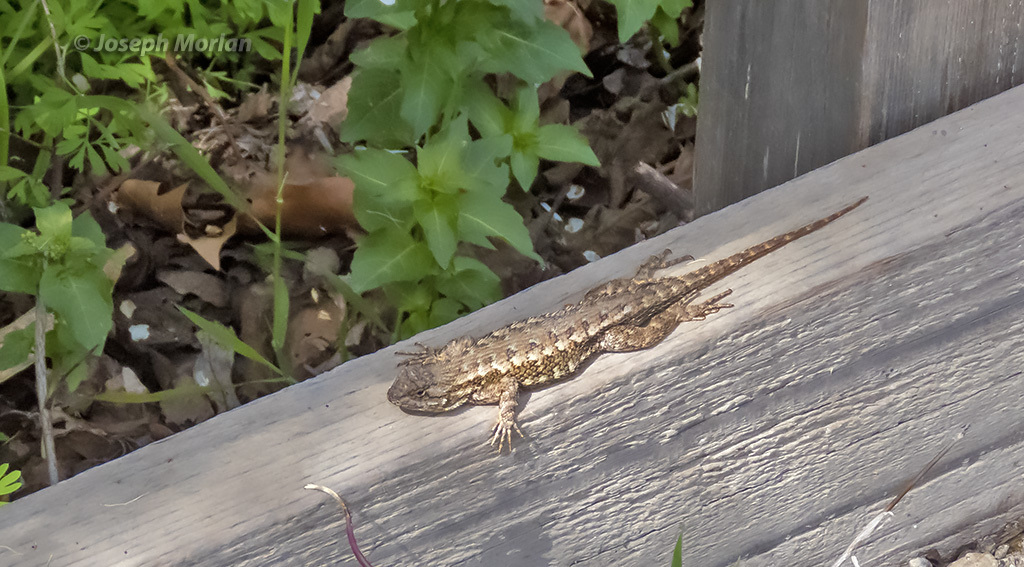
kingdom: Animalia
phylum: Chordata
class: Squamata
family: Phrynosomatidae
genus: Sceloporus
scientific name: Sceloporus occidentalis
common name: Western fence lizard
